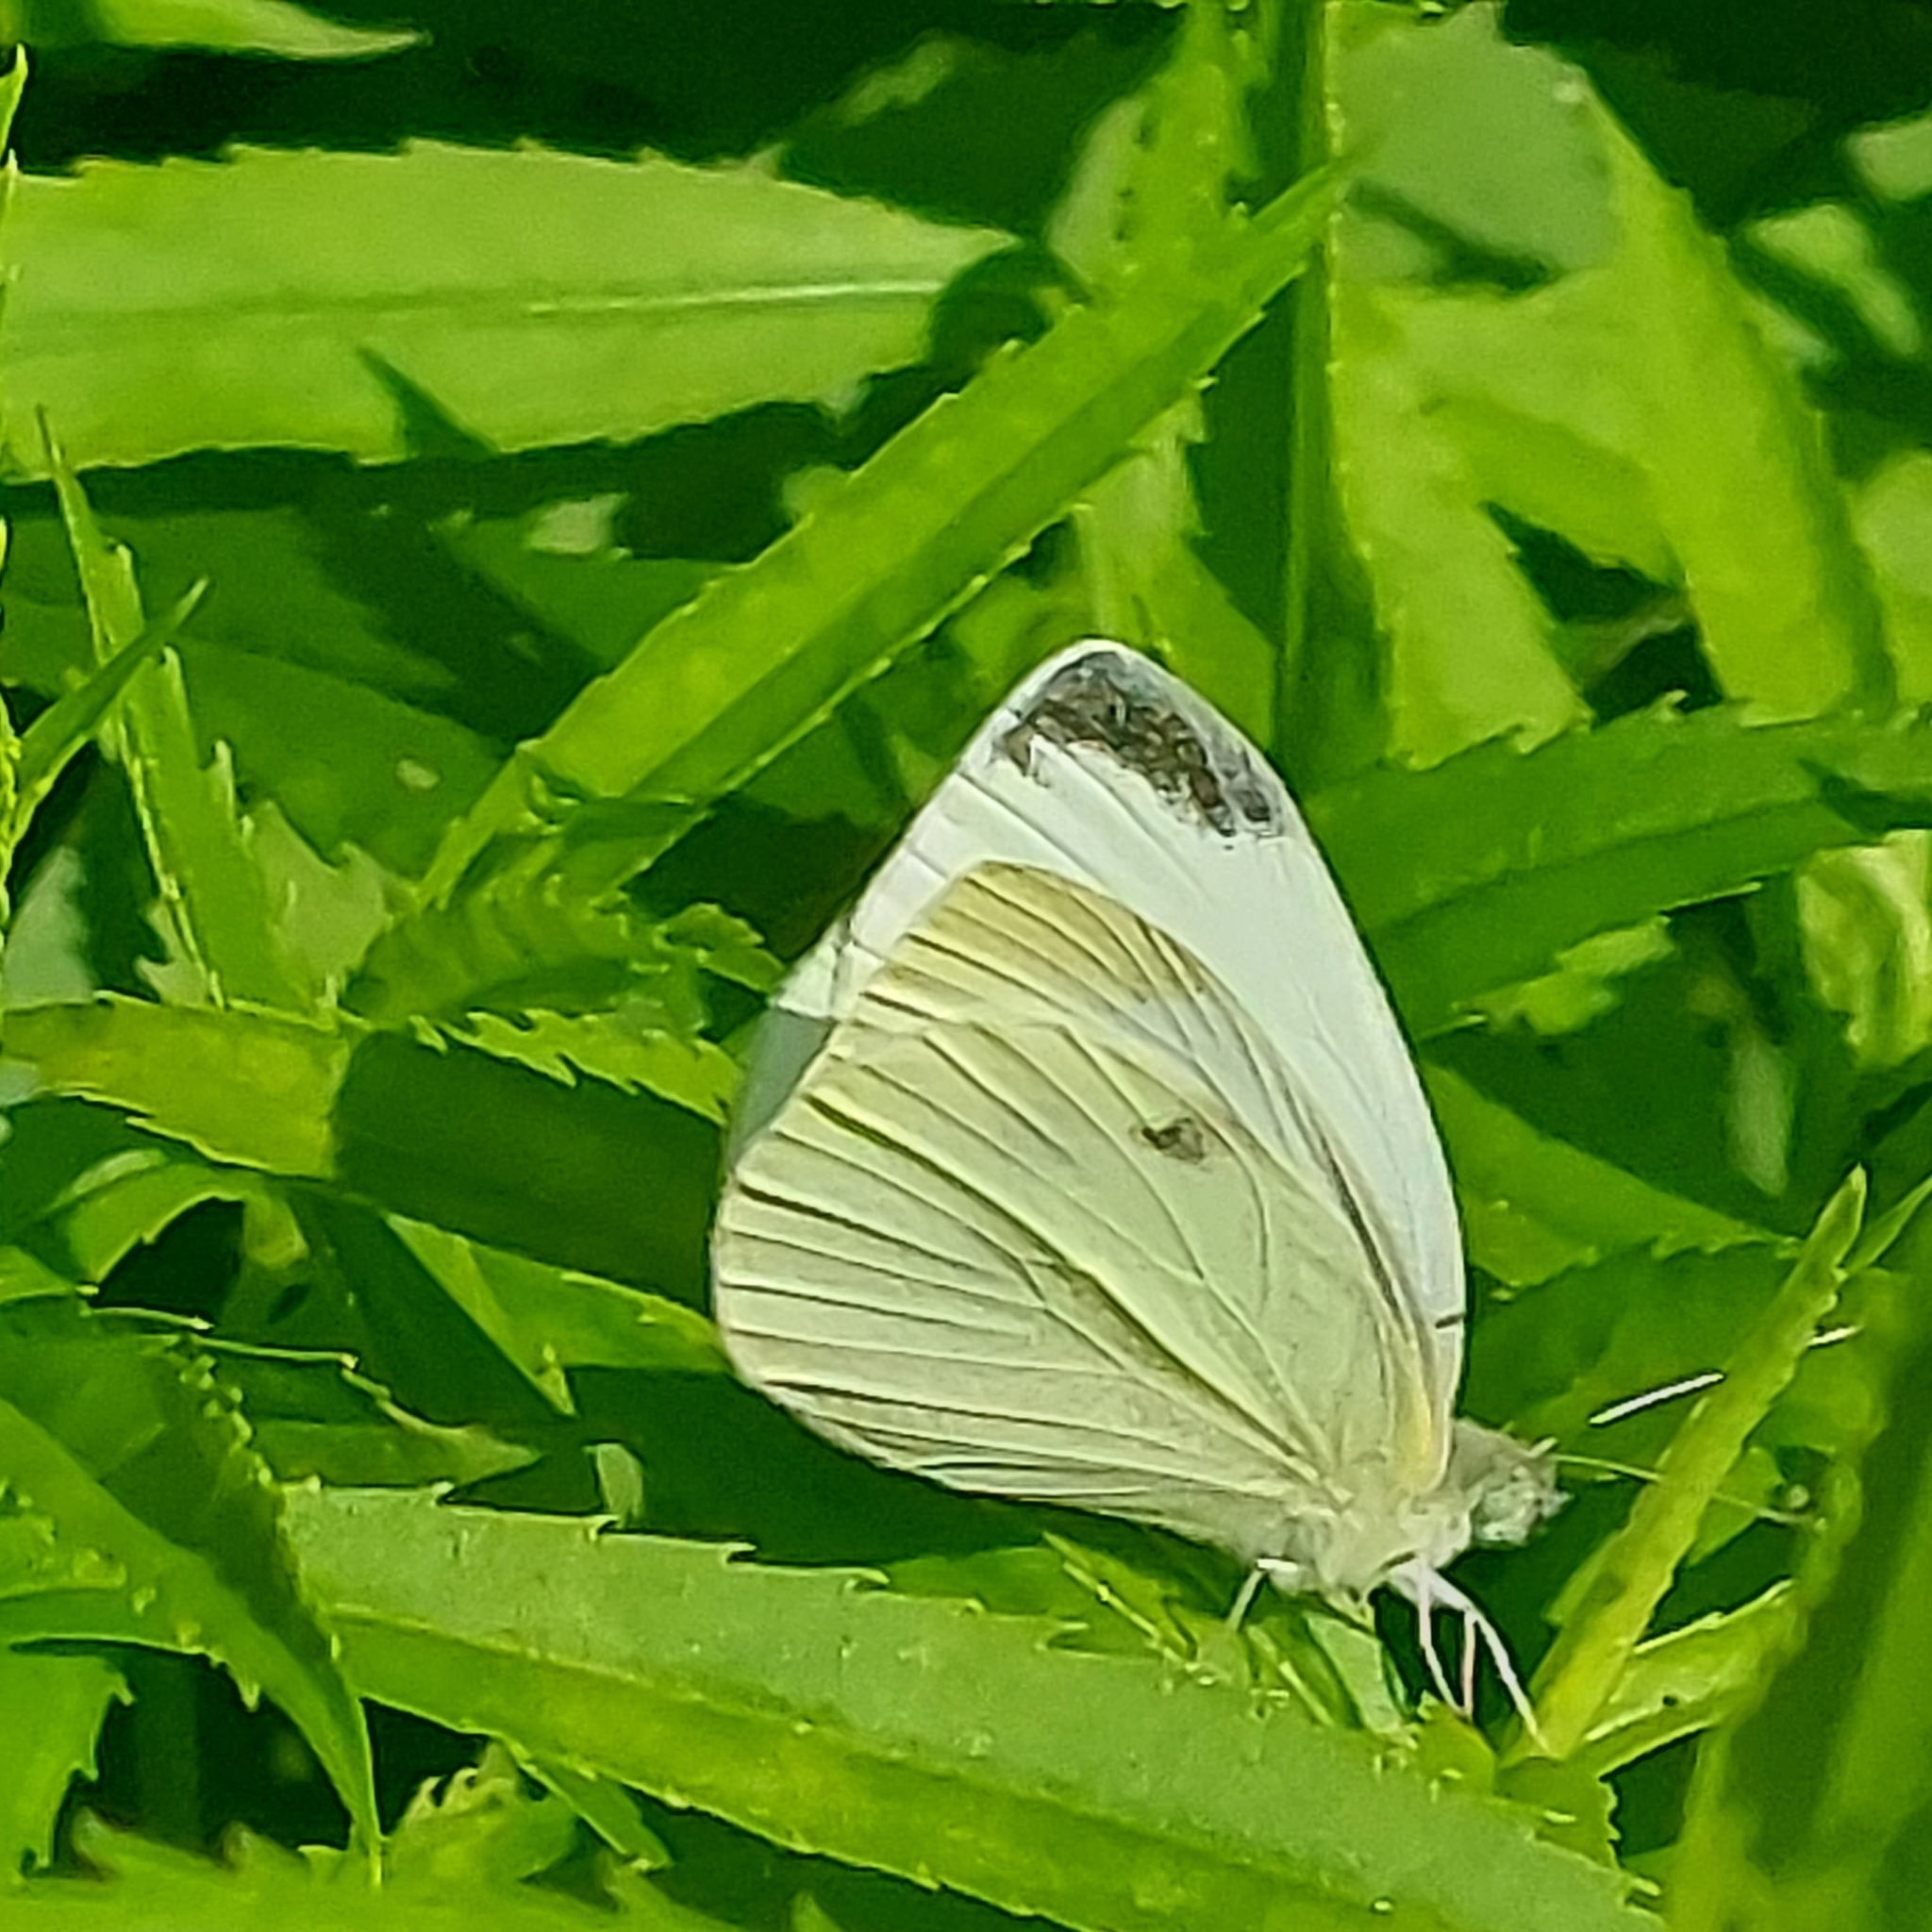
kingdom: Animalia
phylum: Arthropoda
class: Insecta
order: Lepidoptera
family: Pieridae
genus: Pieris
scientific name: Pieris rapae
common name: Small white
